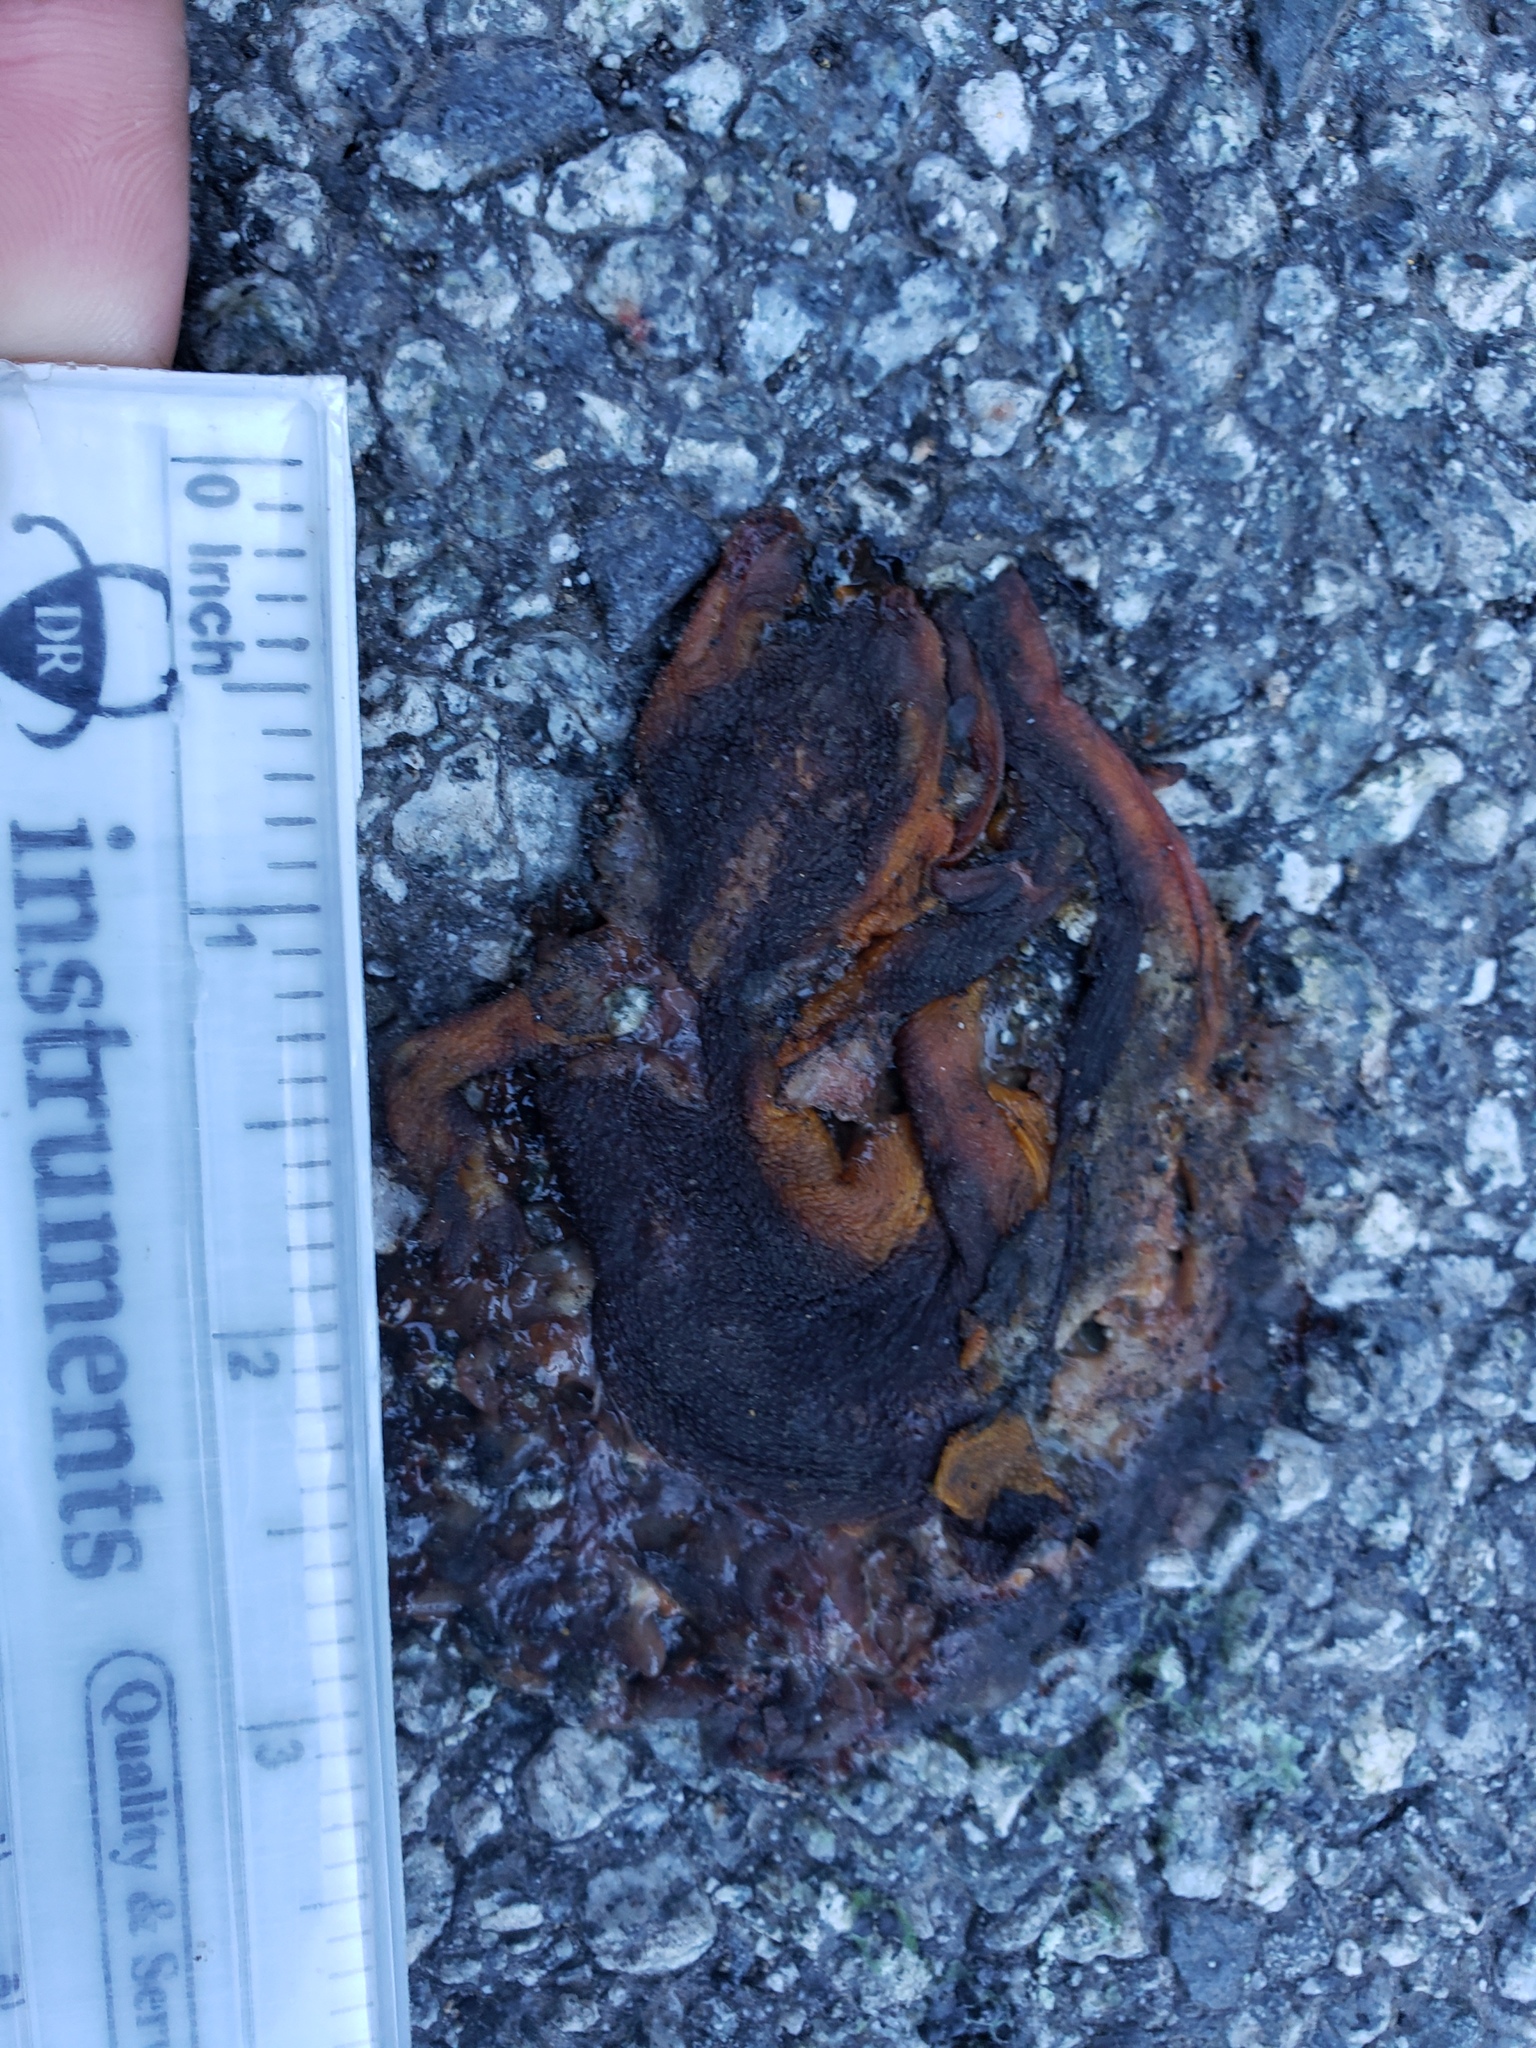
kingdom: Animalia
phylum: Chordata
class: Amphibia
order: Caudata
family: Salamandridae
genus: Taricha
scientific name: Taricha
